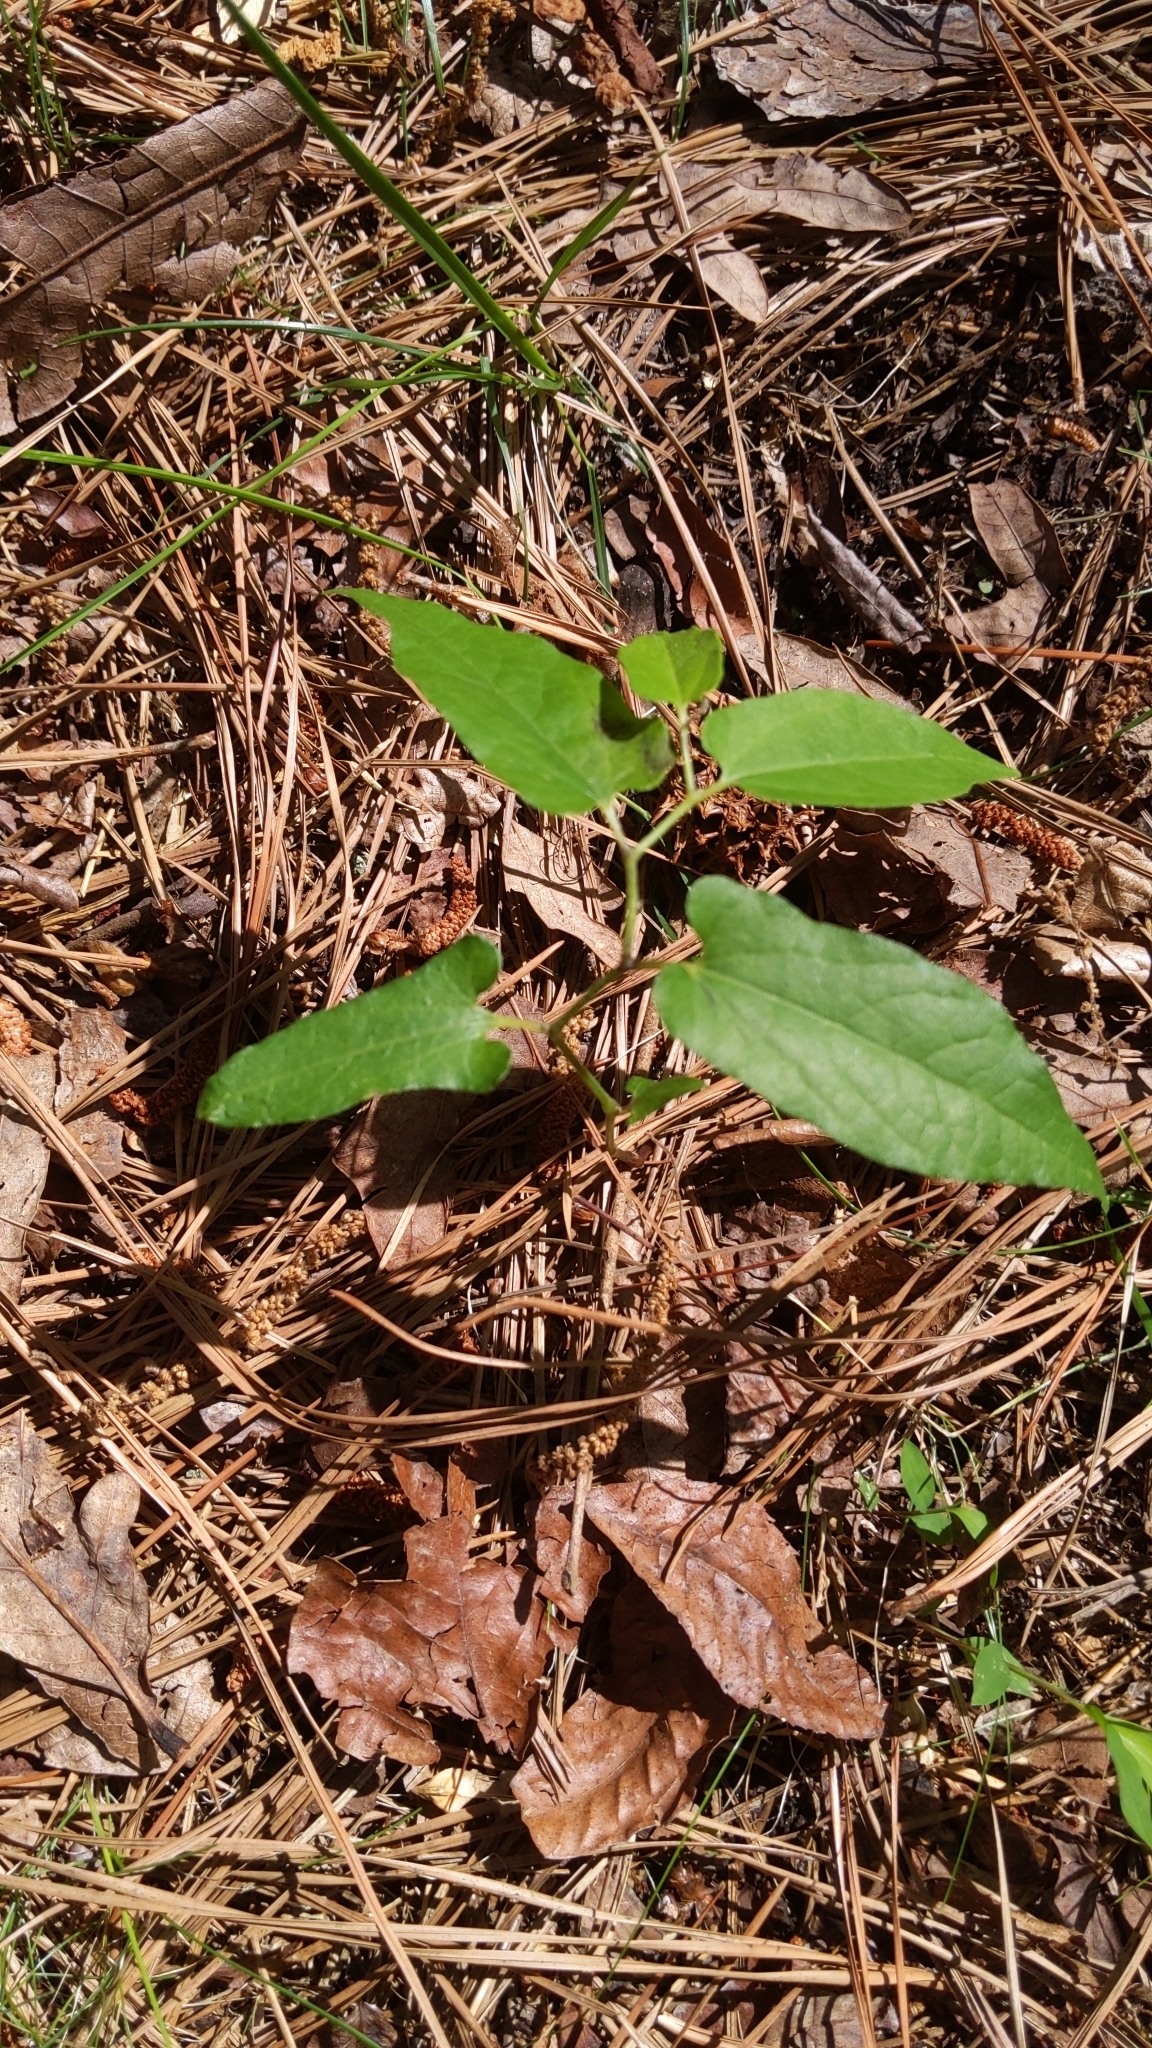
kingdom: Plantae
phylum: Tracheophyta
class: Magnoliopsida
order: Piperales
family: Aristolochiaceae
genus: Endodeca
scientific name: Endodeca serpentaria
